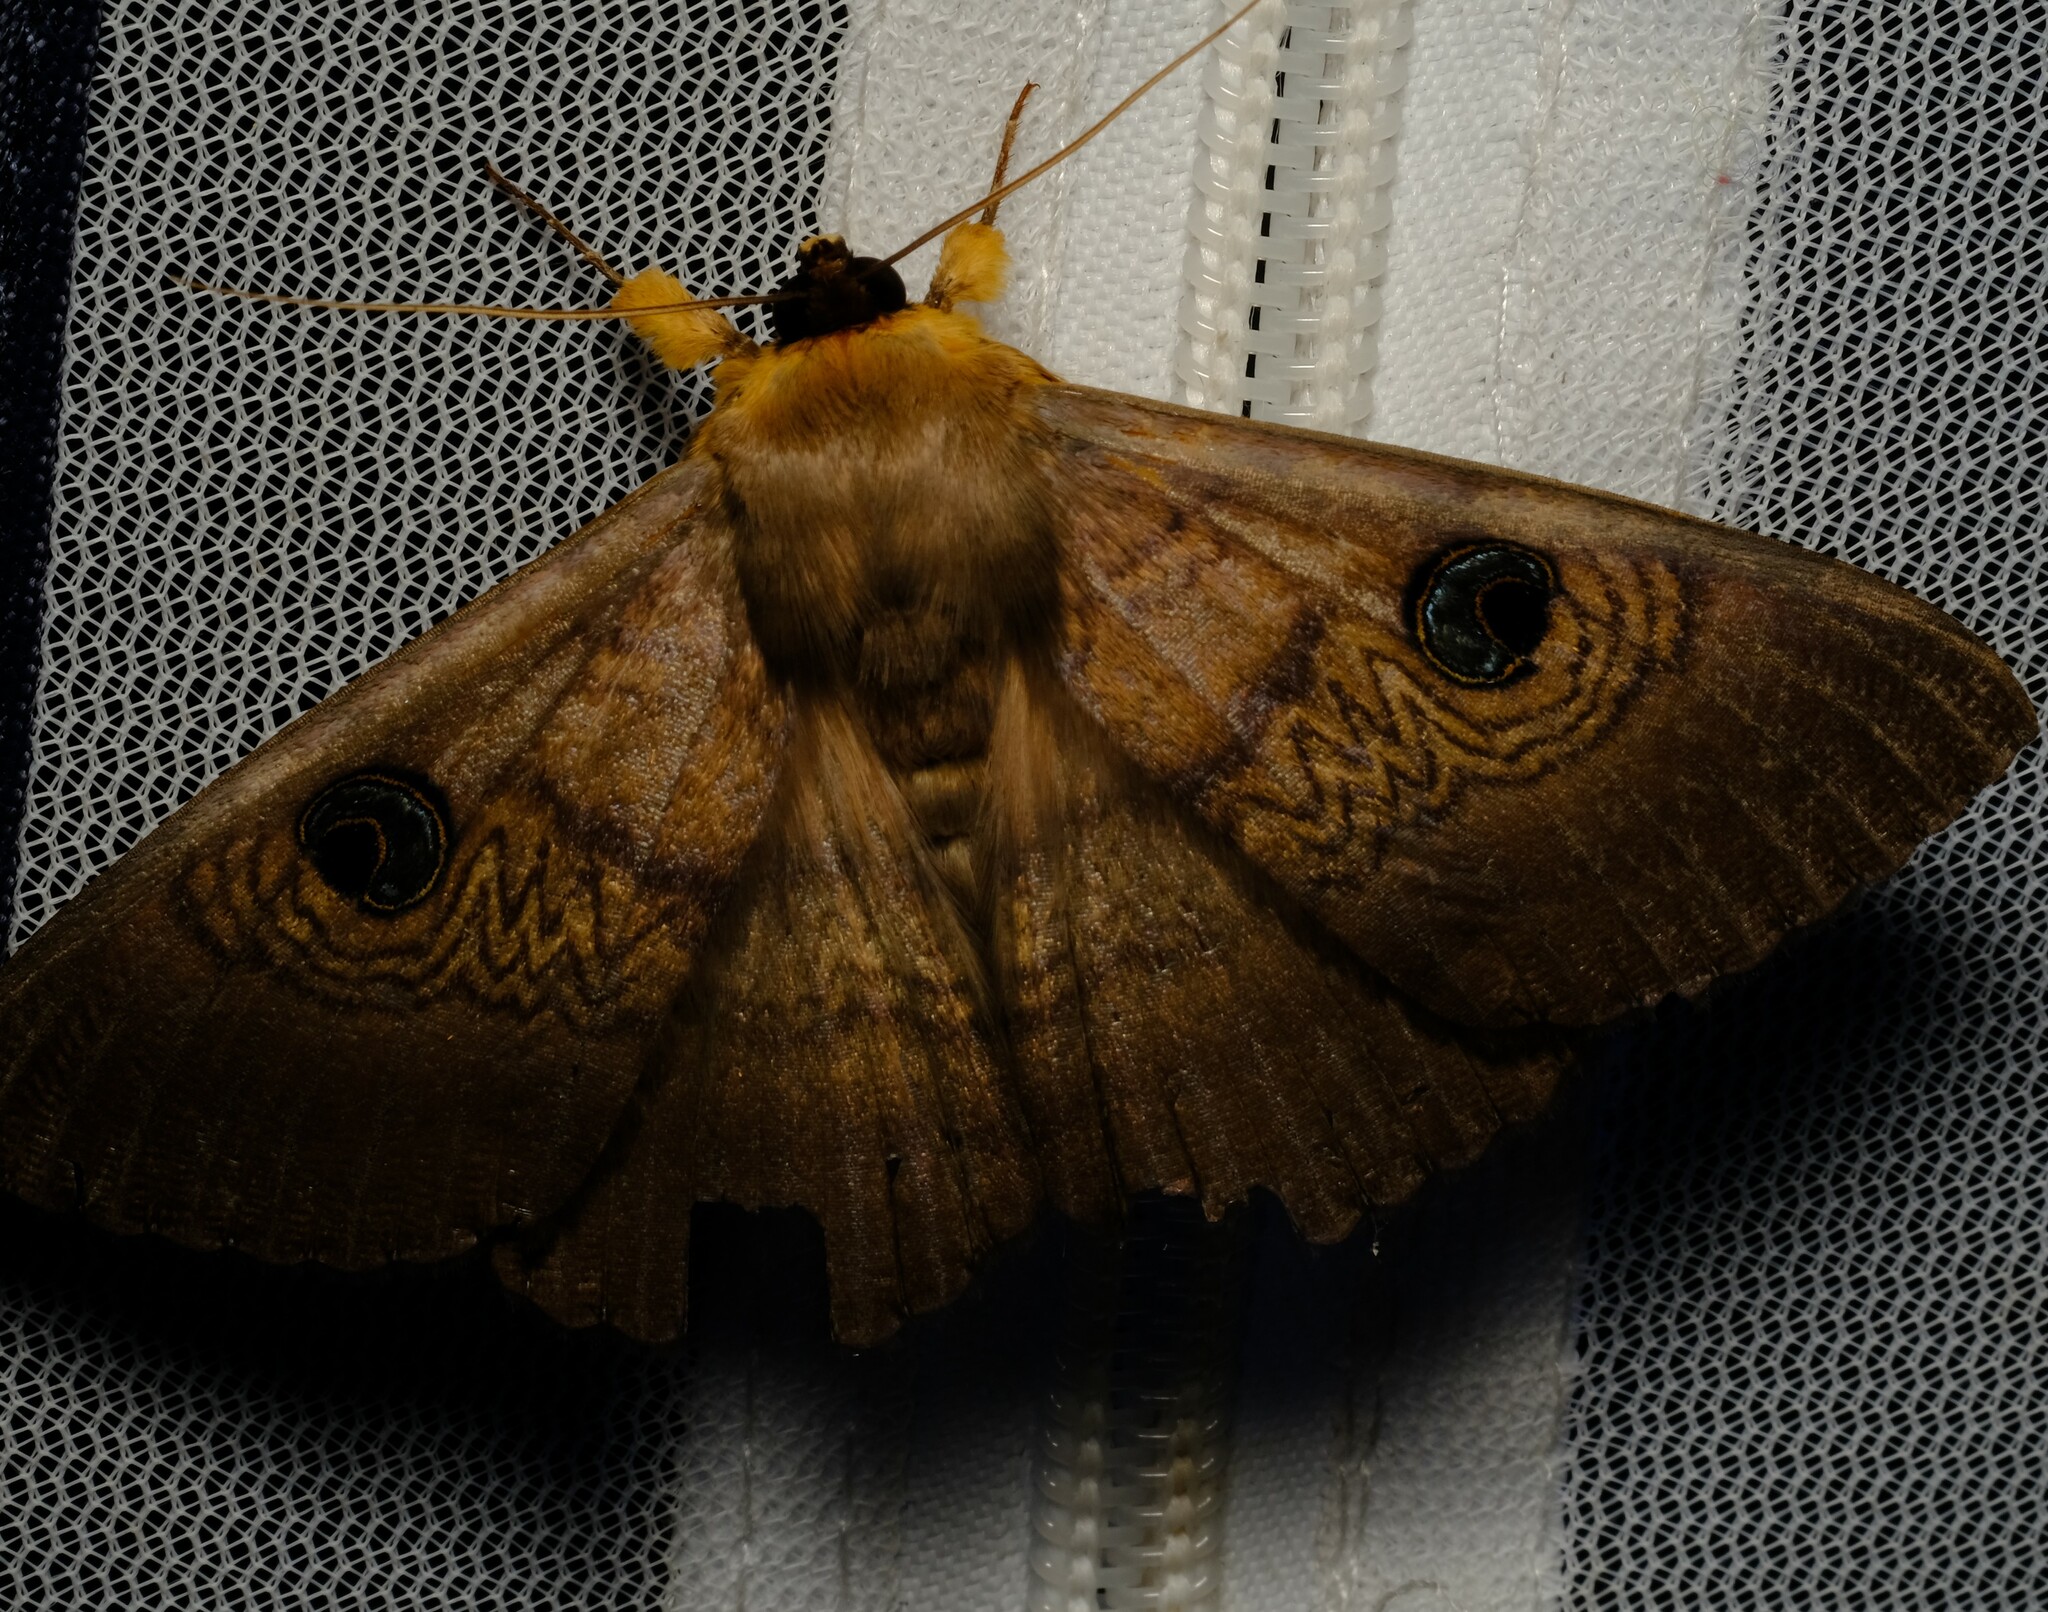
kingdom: Animalia
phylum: Arthropoda
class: Insecta
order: Lepidoptera
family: Erebidae
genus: Dasypodia
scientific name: Dasypodia selenophora
